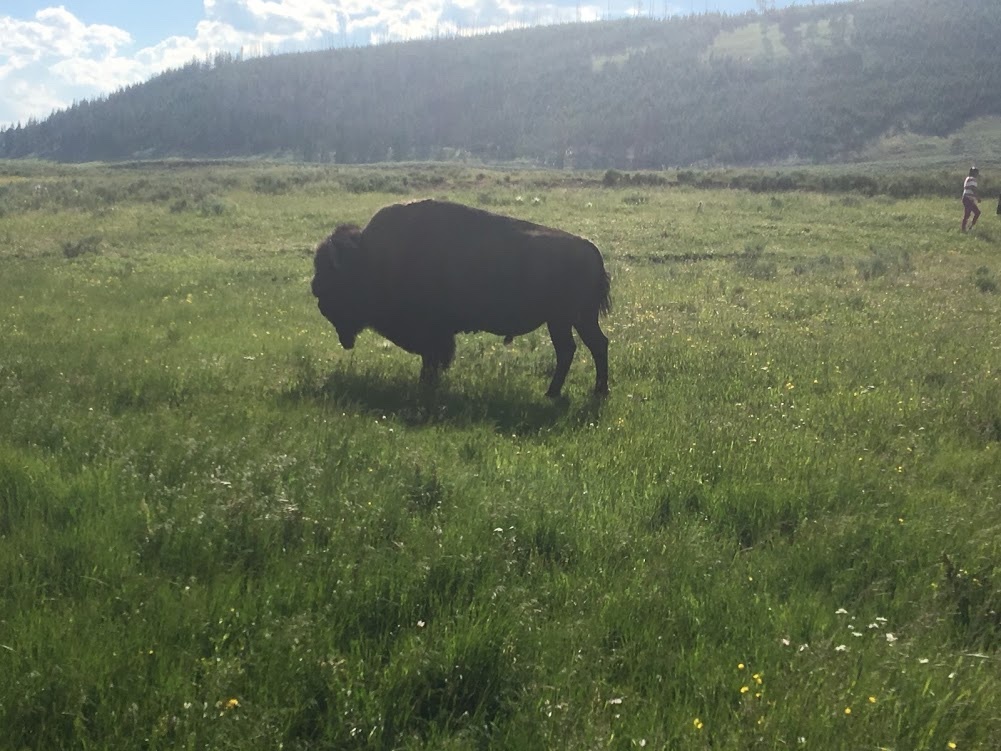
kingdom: Animalia
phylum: Chordata
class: Mammalia
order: Artiodactyla
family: Bovidae
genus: Bison
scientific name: Bison bison
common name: American bison
